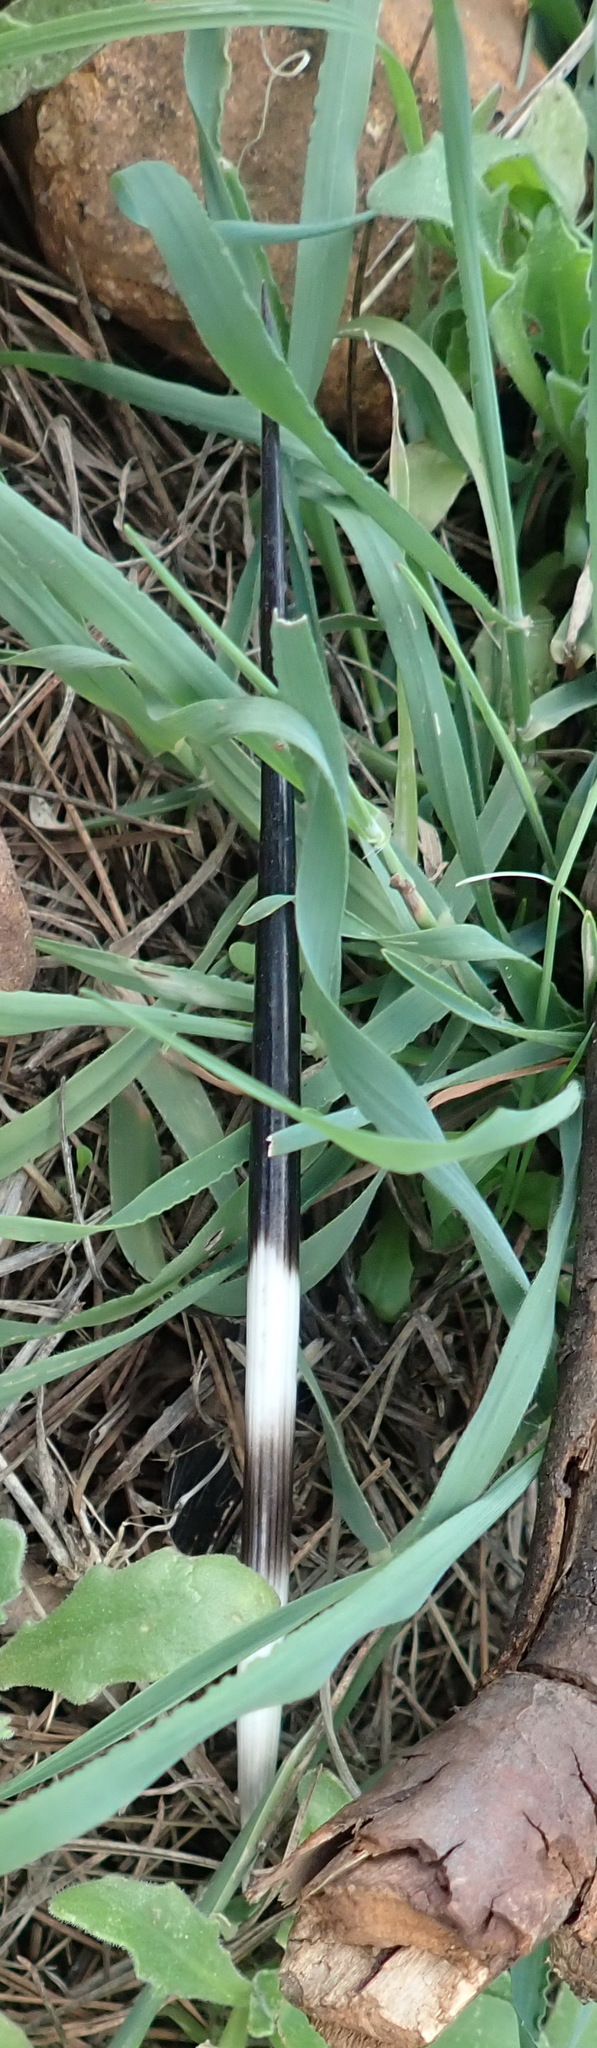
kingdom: Animalia
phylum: Chordata
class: Mammalia
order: Rodentia
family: Hystricidae
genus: Hystrix
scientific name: Hystrix africaeaustralis
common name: Cape porcupine
